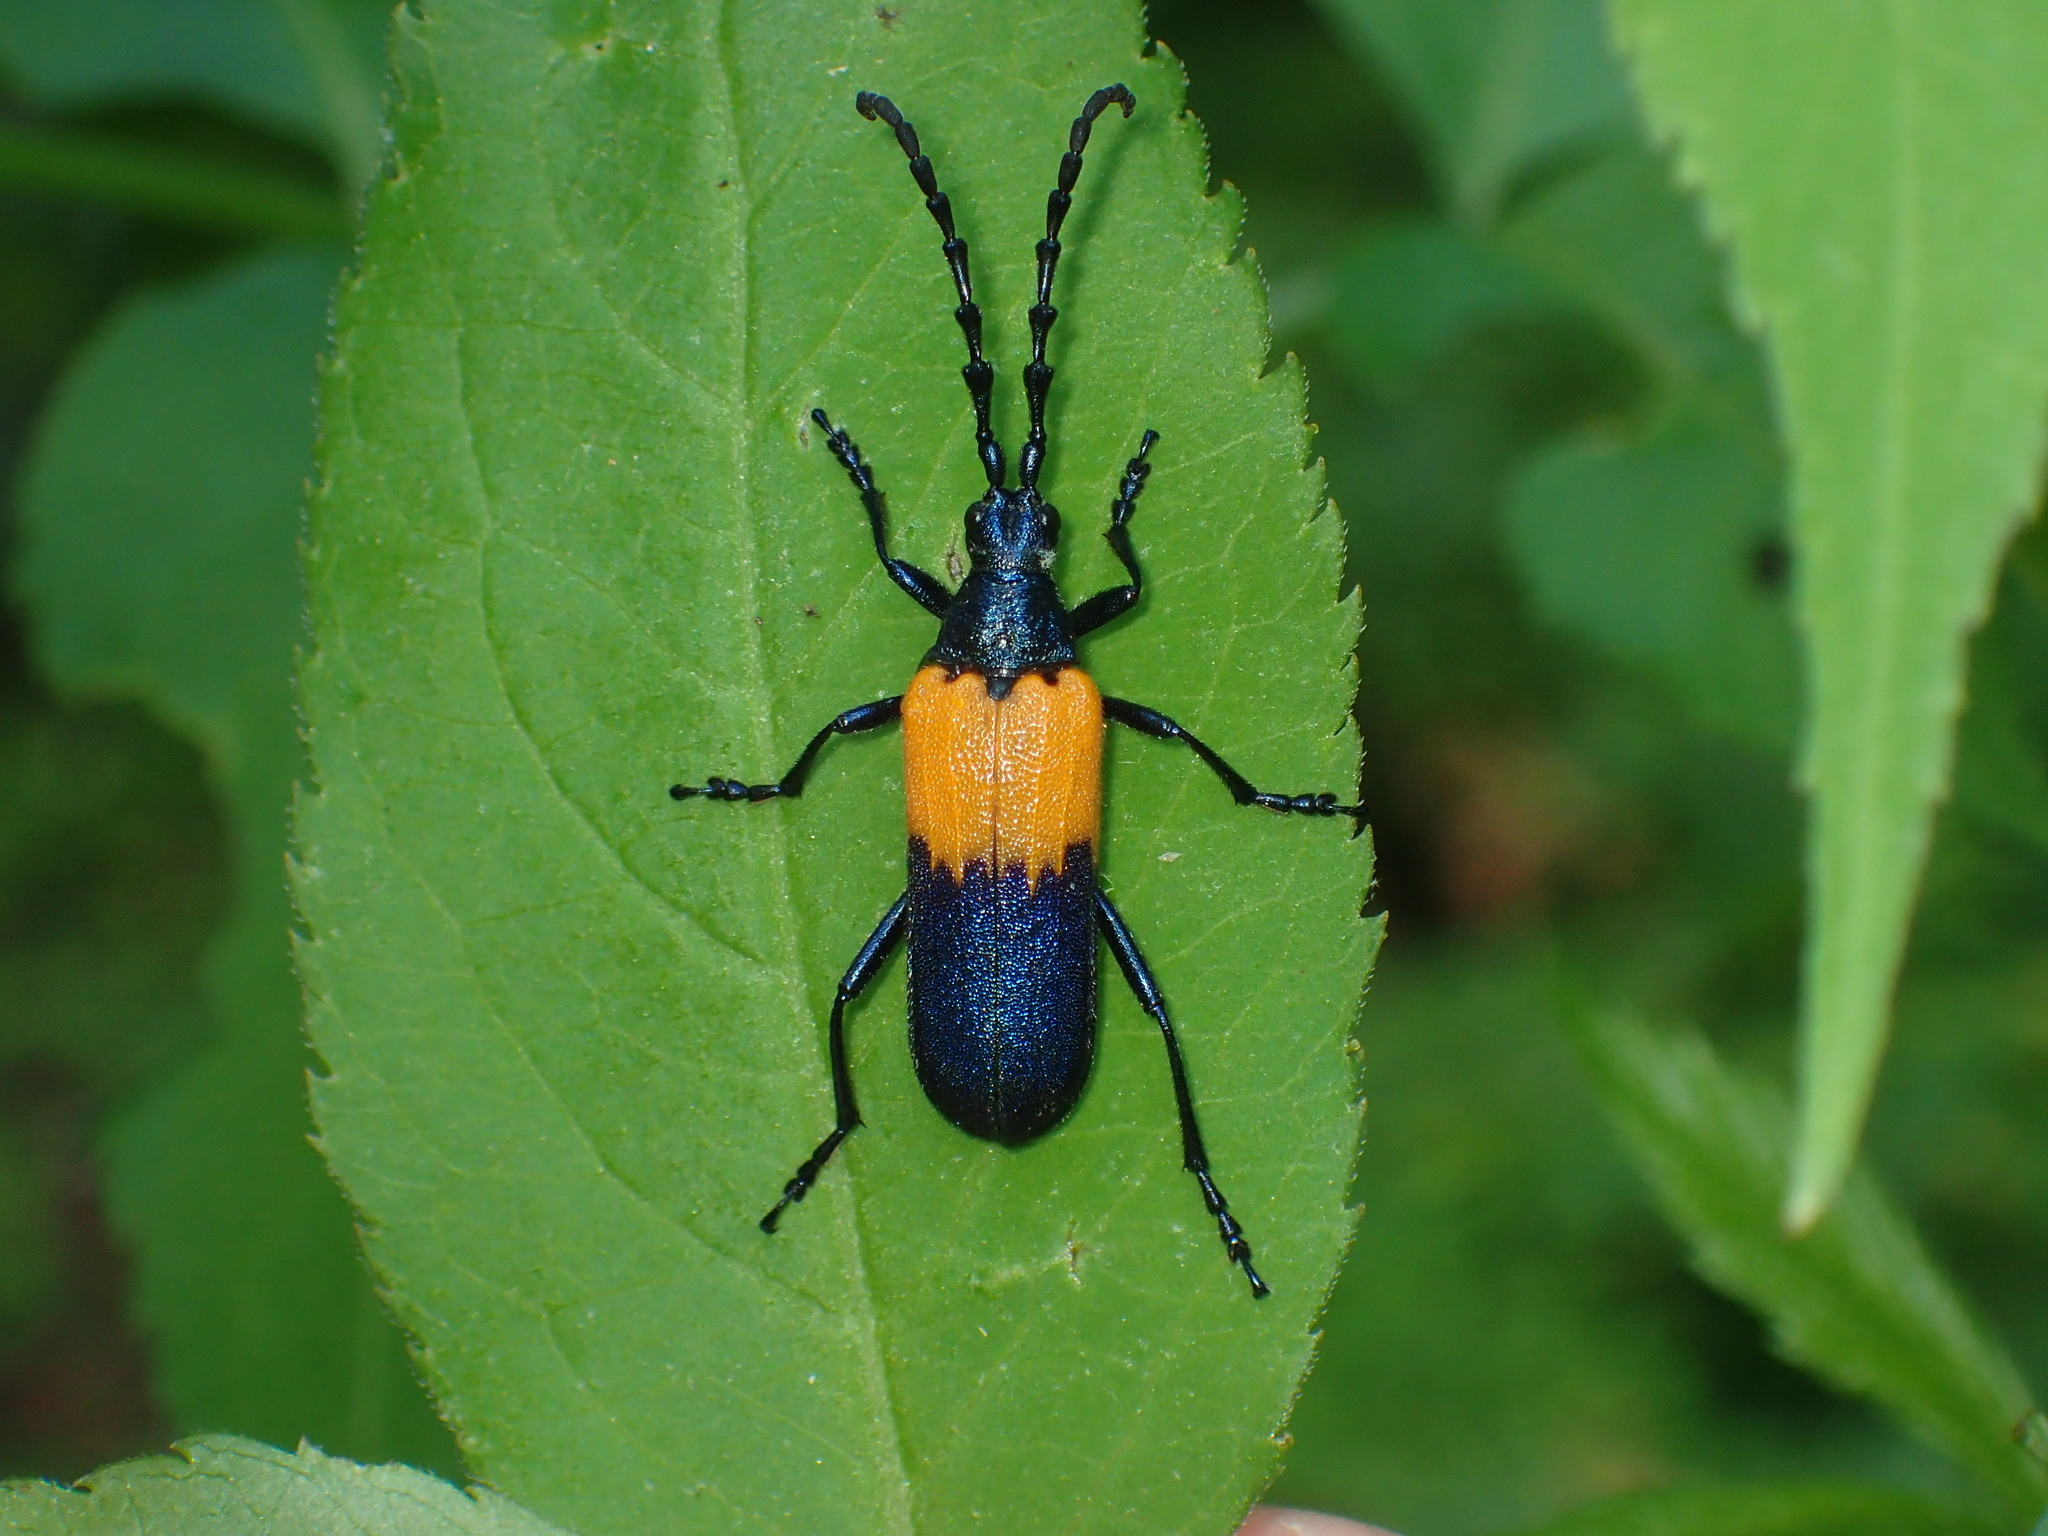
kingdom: Animalia
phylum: Arthropoda
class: Insecta
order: Coleoptera
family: Cerambycidae
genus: Desmocerus
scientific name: Desmocerus palliatus
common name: Eastern elderberry borer
